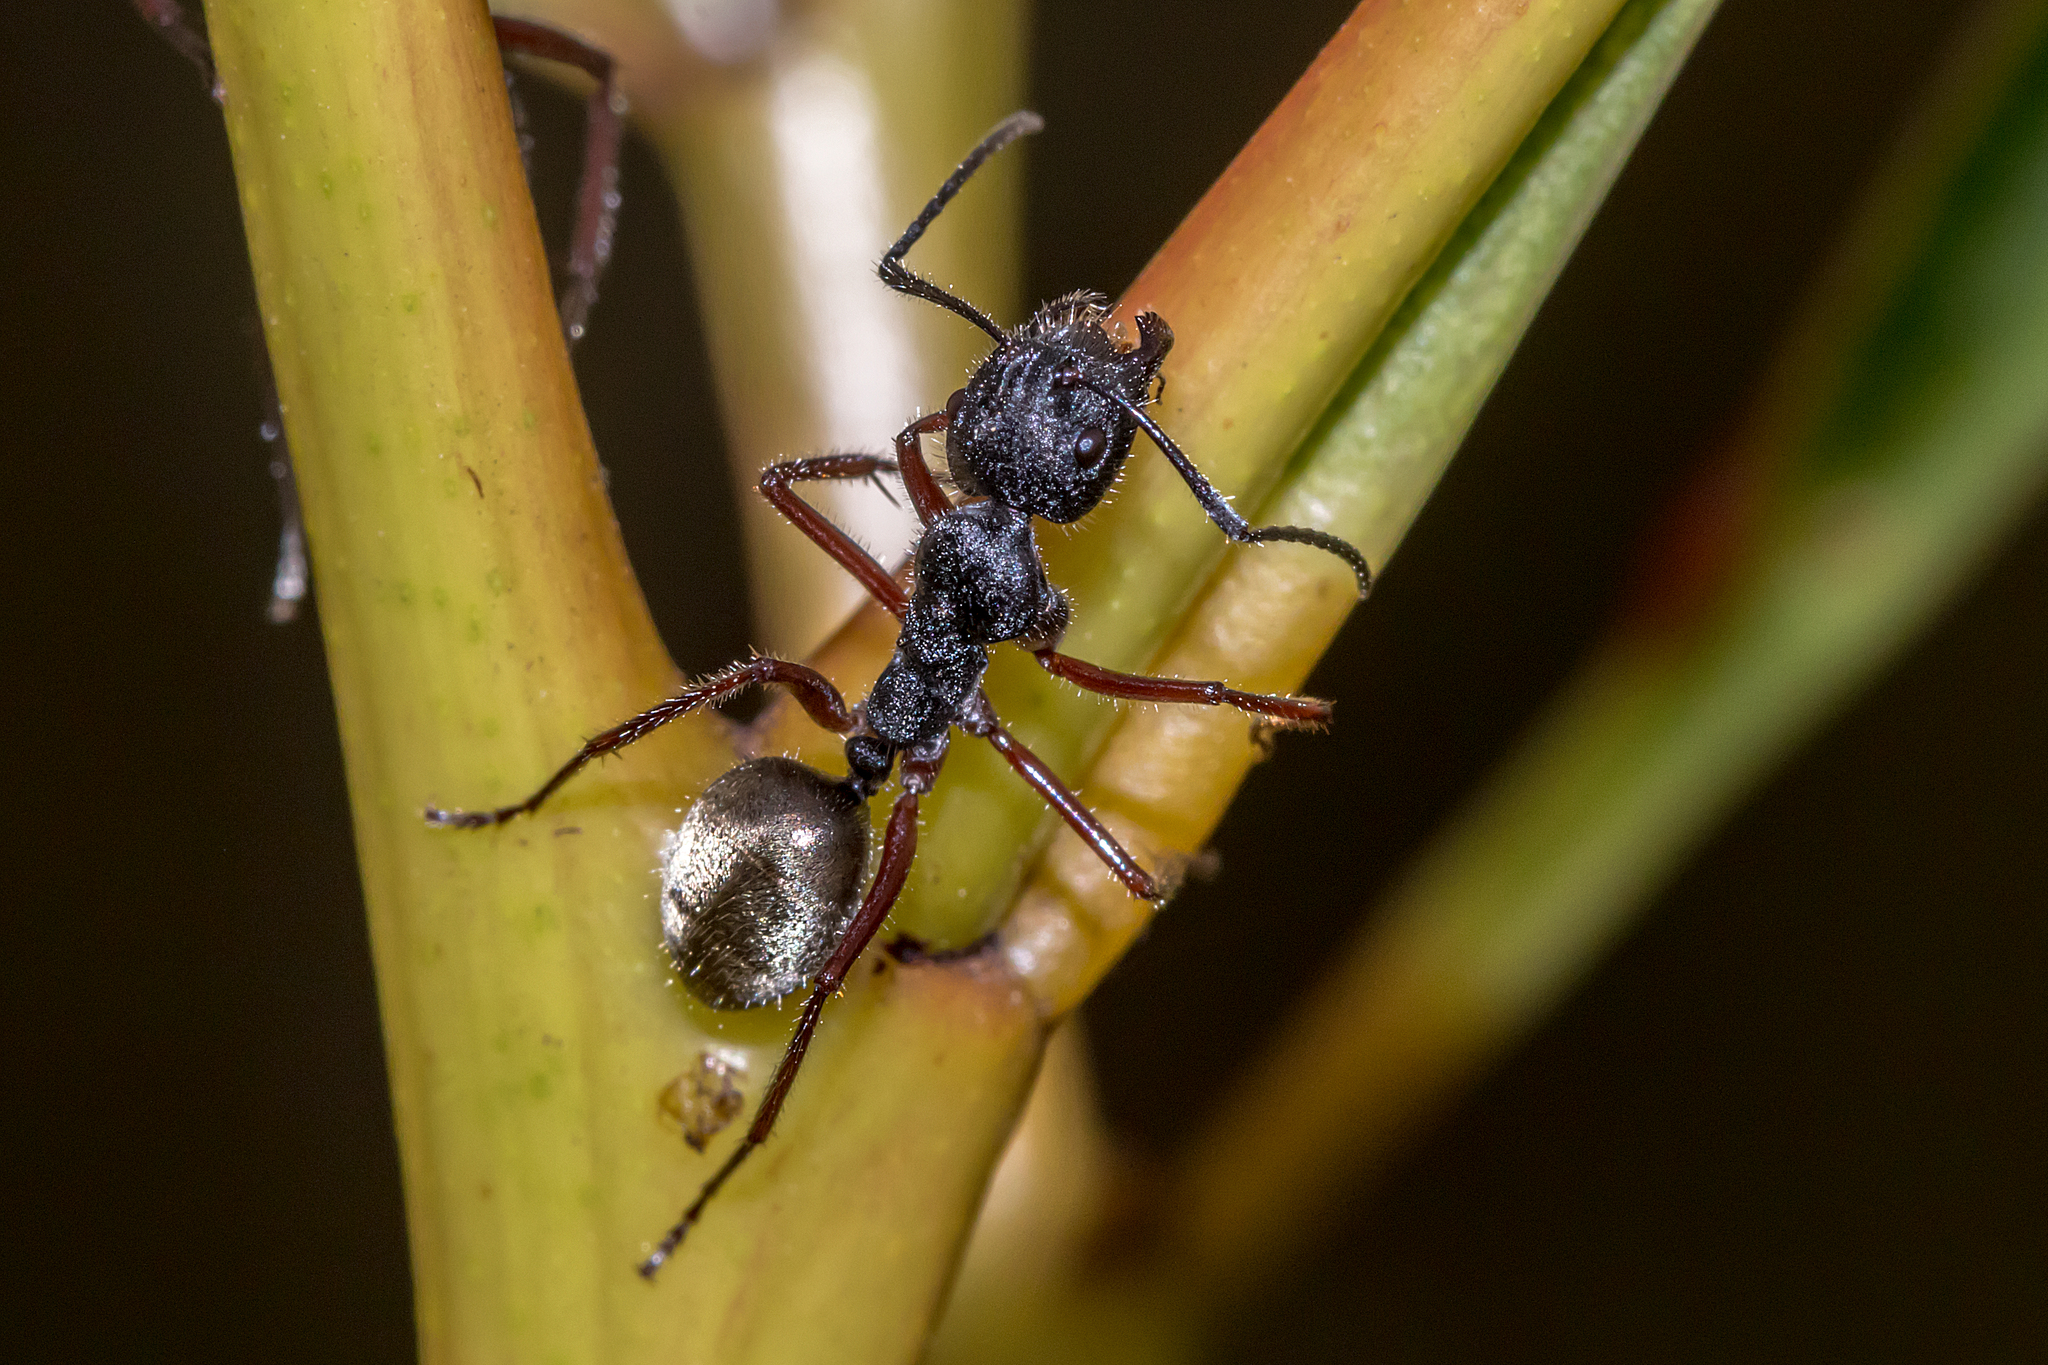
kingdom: Animalia
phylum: Arthropoda
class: Insecta
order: Hymenoptera
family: Formicidae
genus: Camponotus
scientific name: Camponotus suffusus
